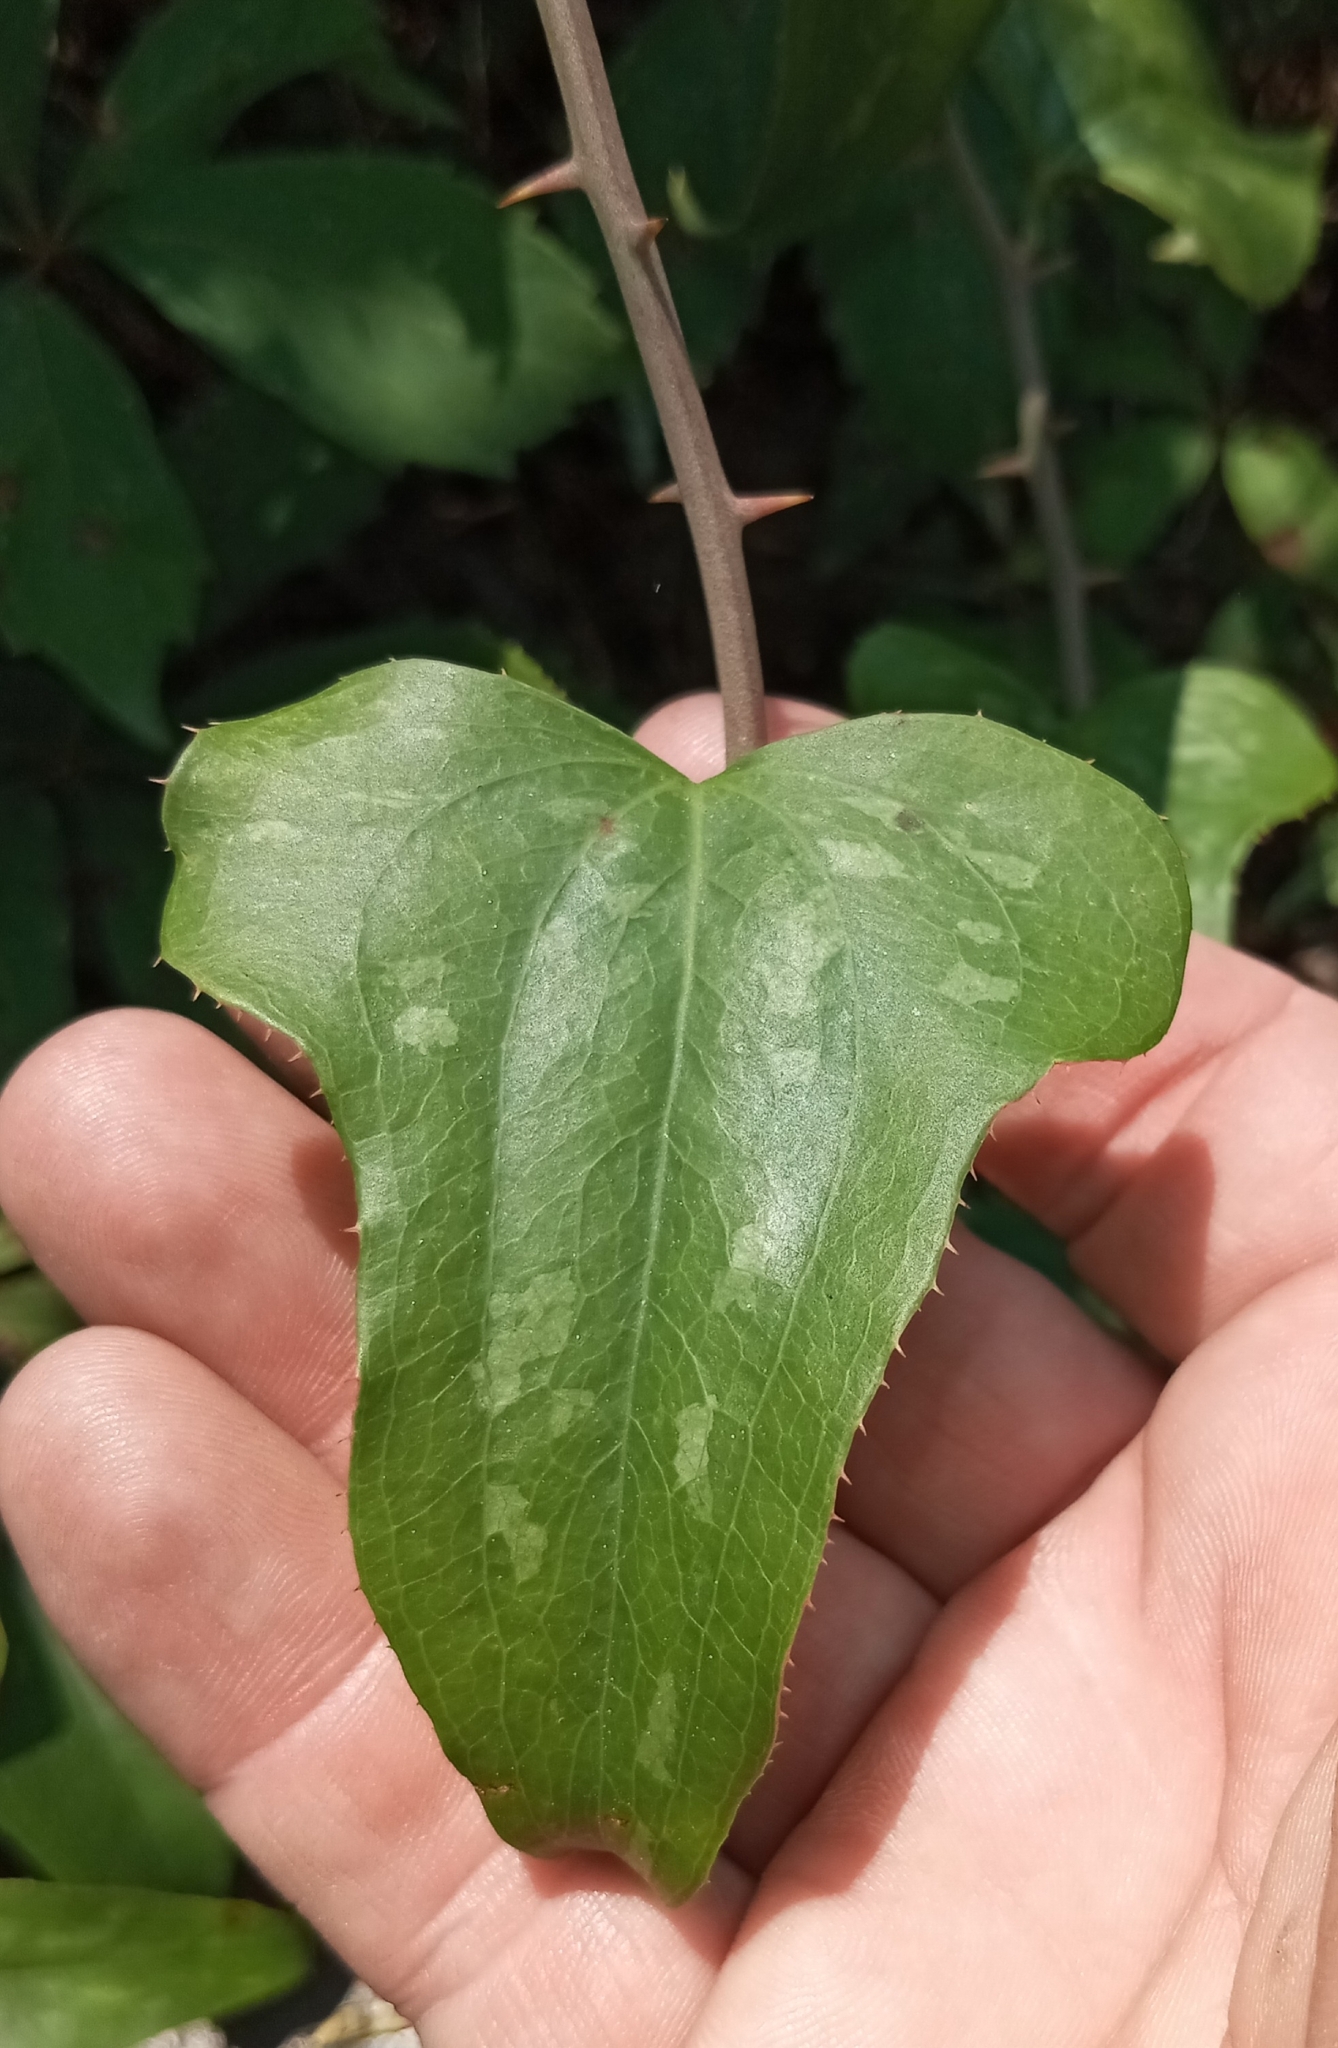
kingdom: Plantae
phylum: Tracheophyta
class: Liliopsida
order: Liliales
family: Smilacaceae
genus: Smilax
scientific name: Smilax bona-nox
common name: Catbrier
